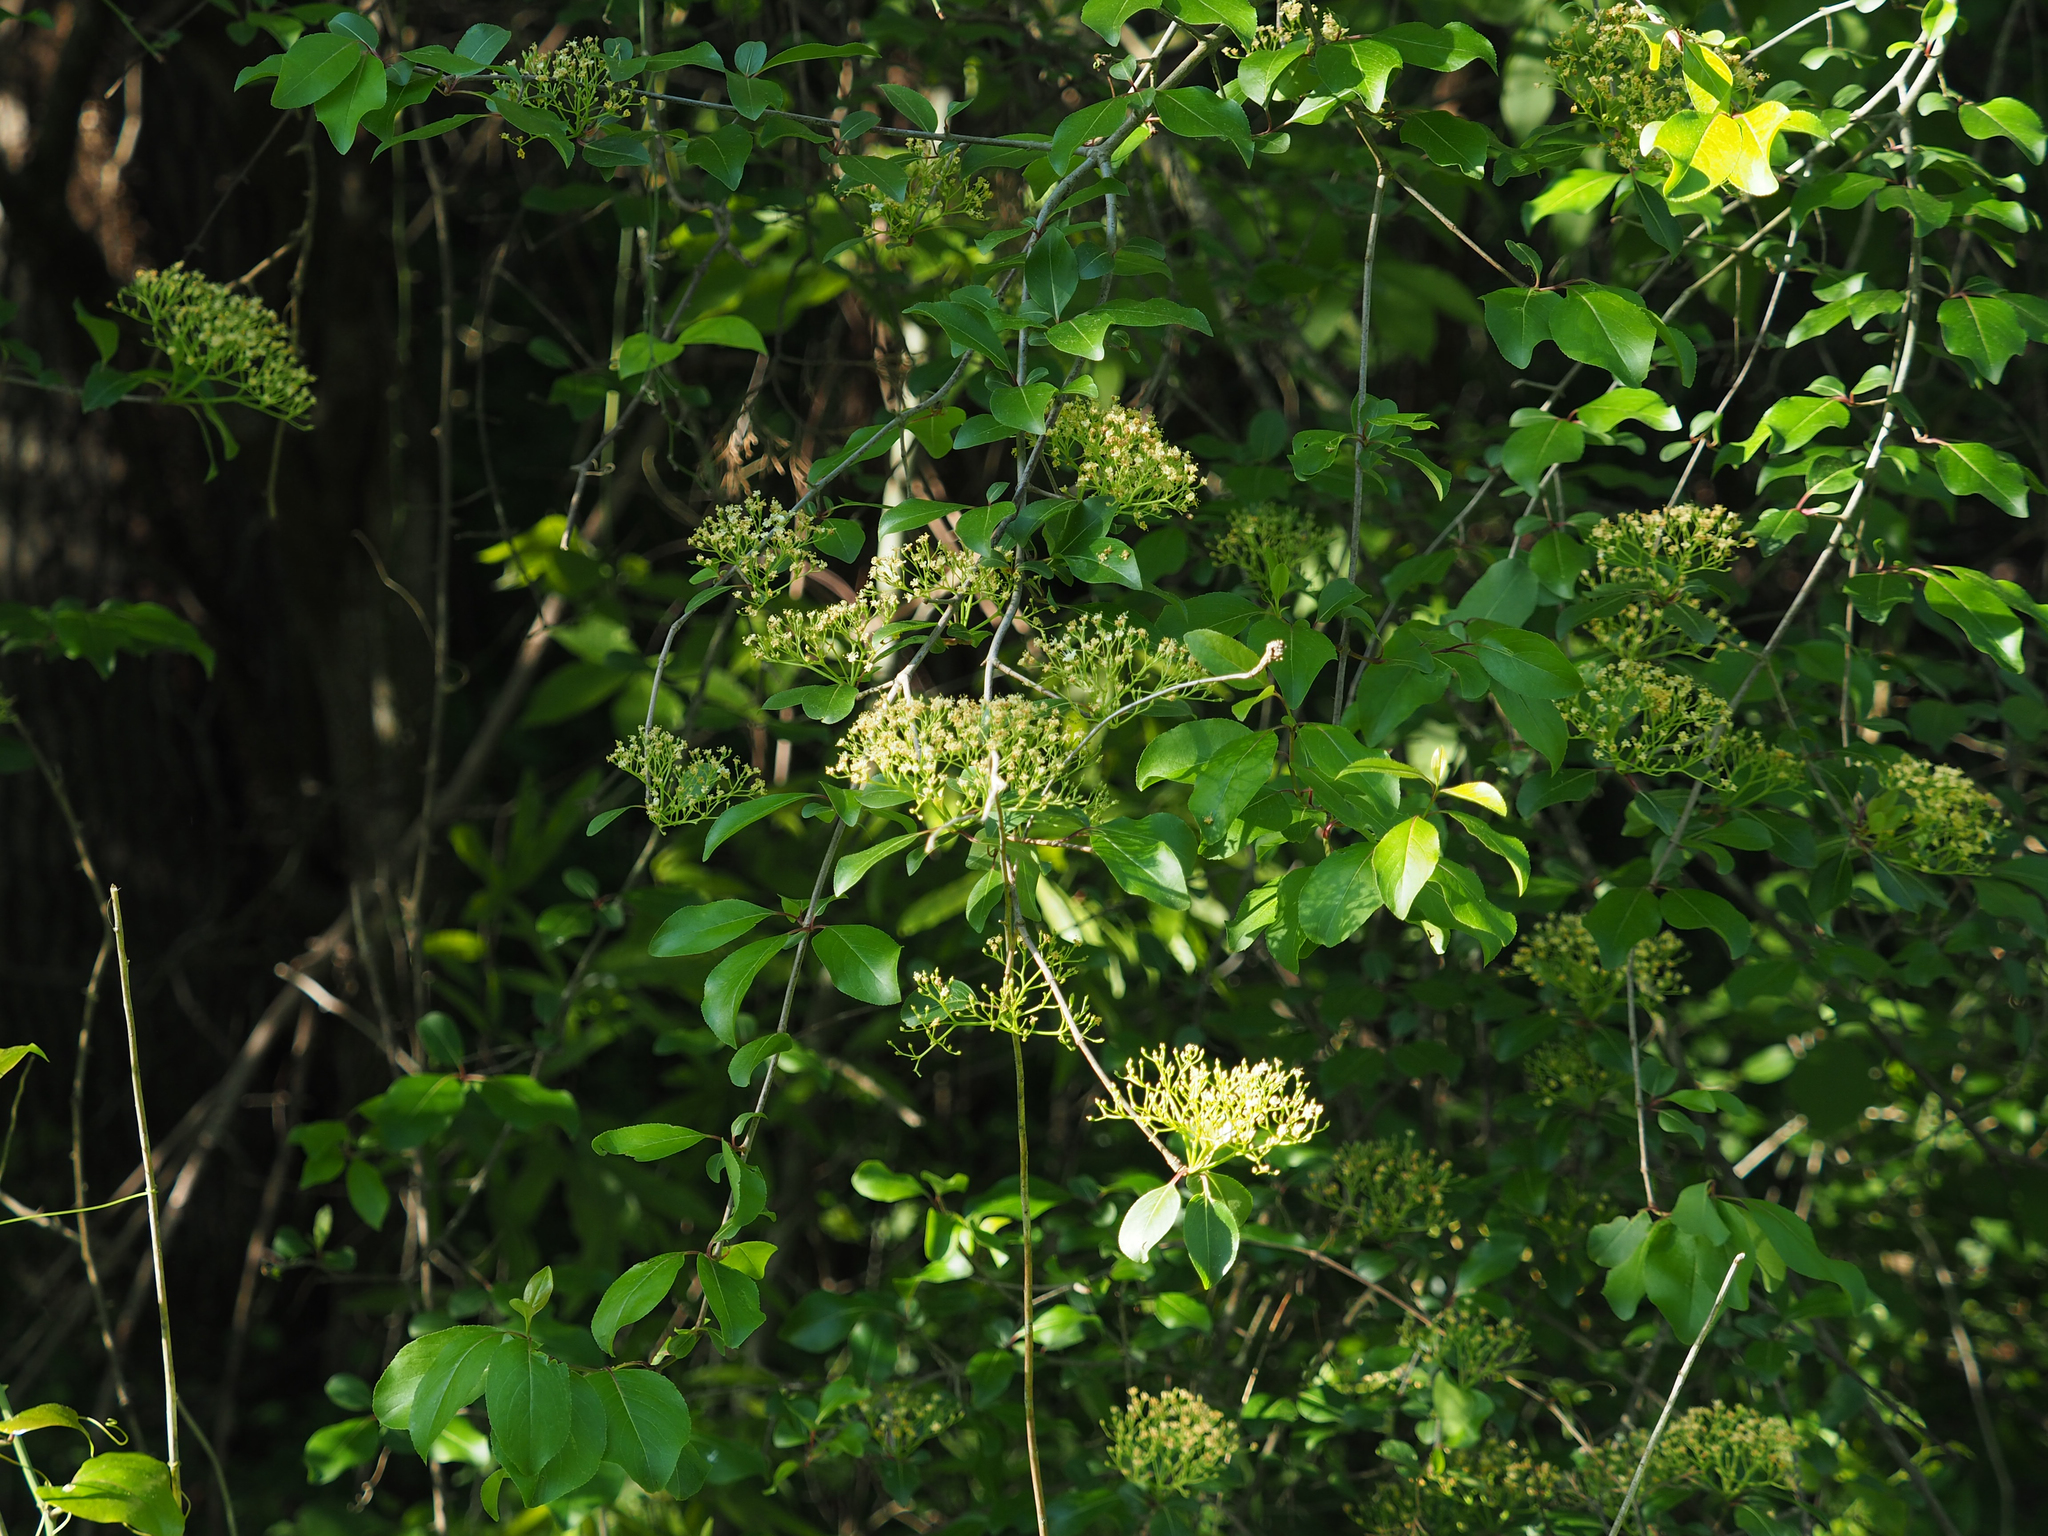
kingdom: Plantae
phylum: Tracheophyta
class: Magnoliopsida
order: Dipsacales
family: Viburnaceae
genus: Viburnum
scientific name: Viburnum prunifolium
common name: Black haw
